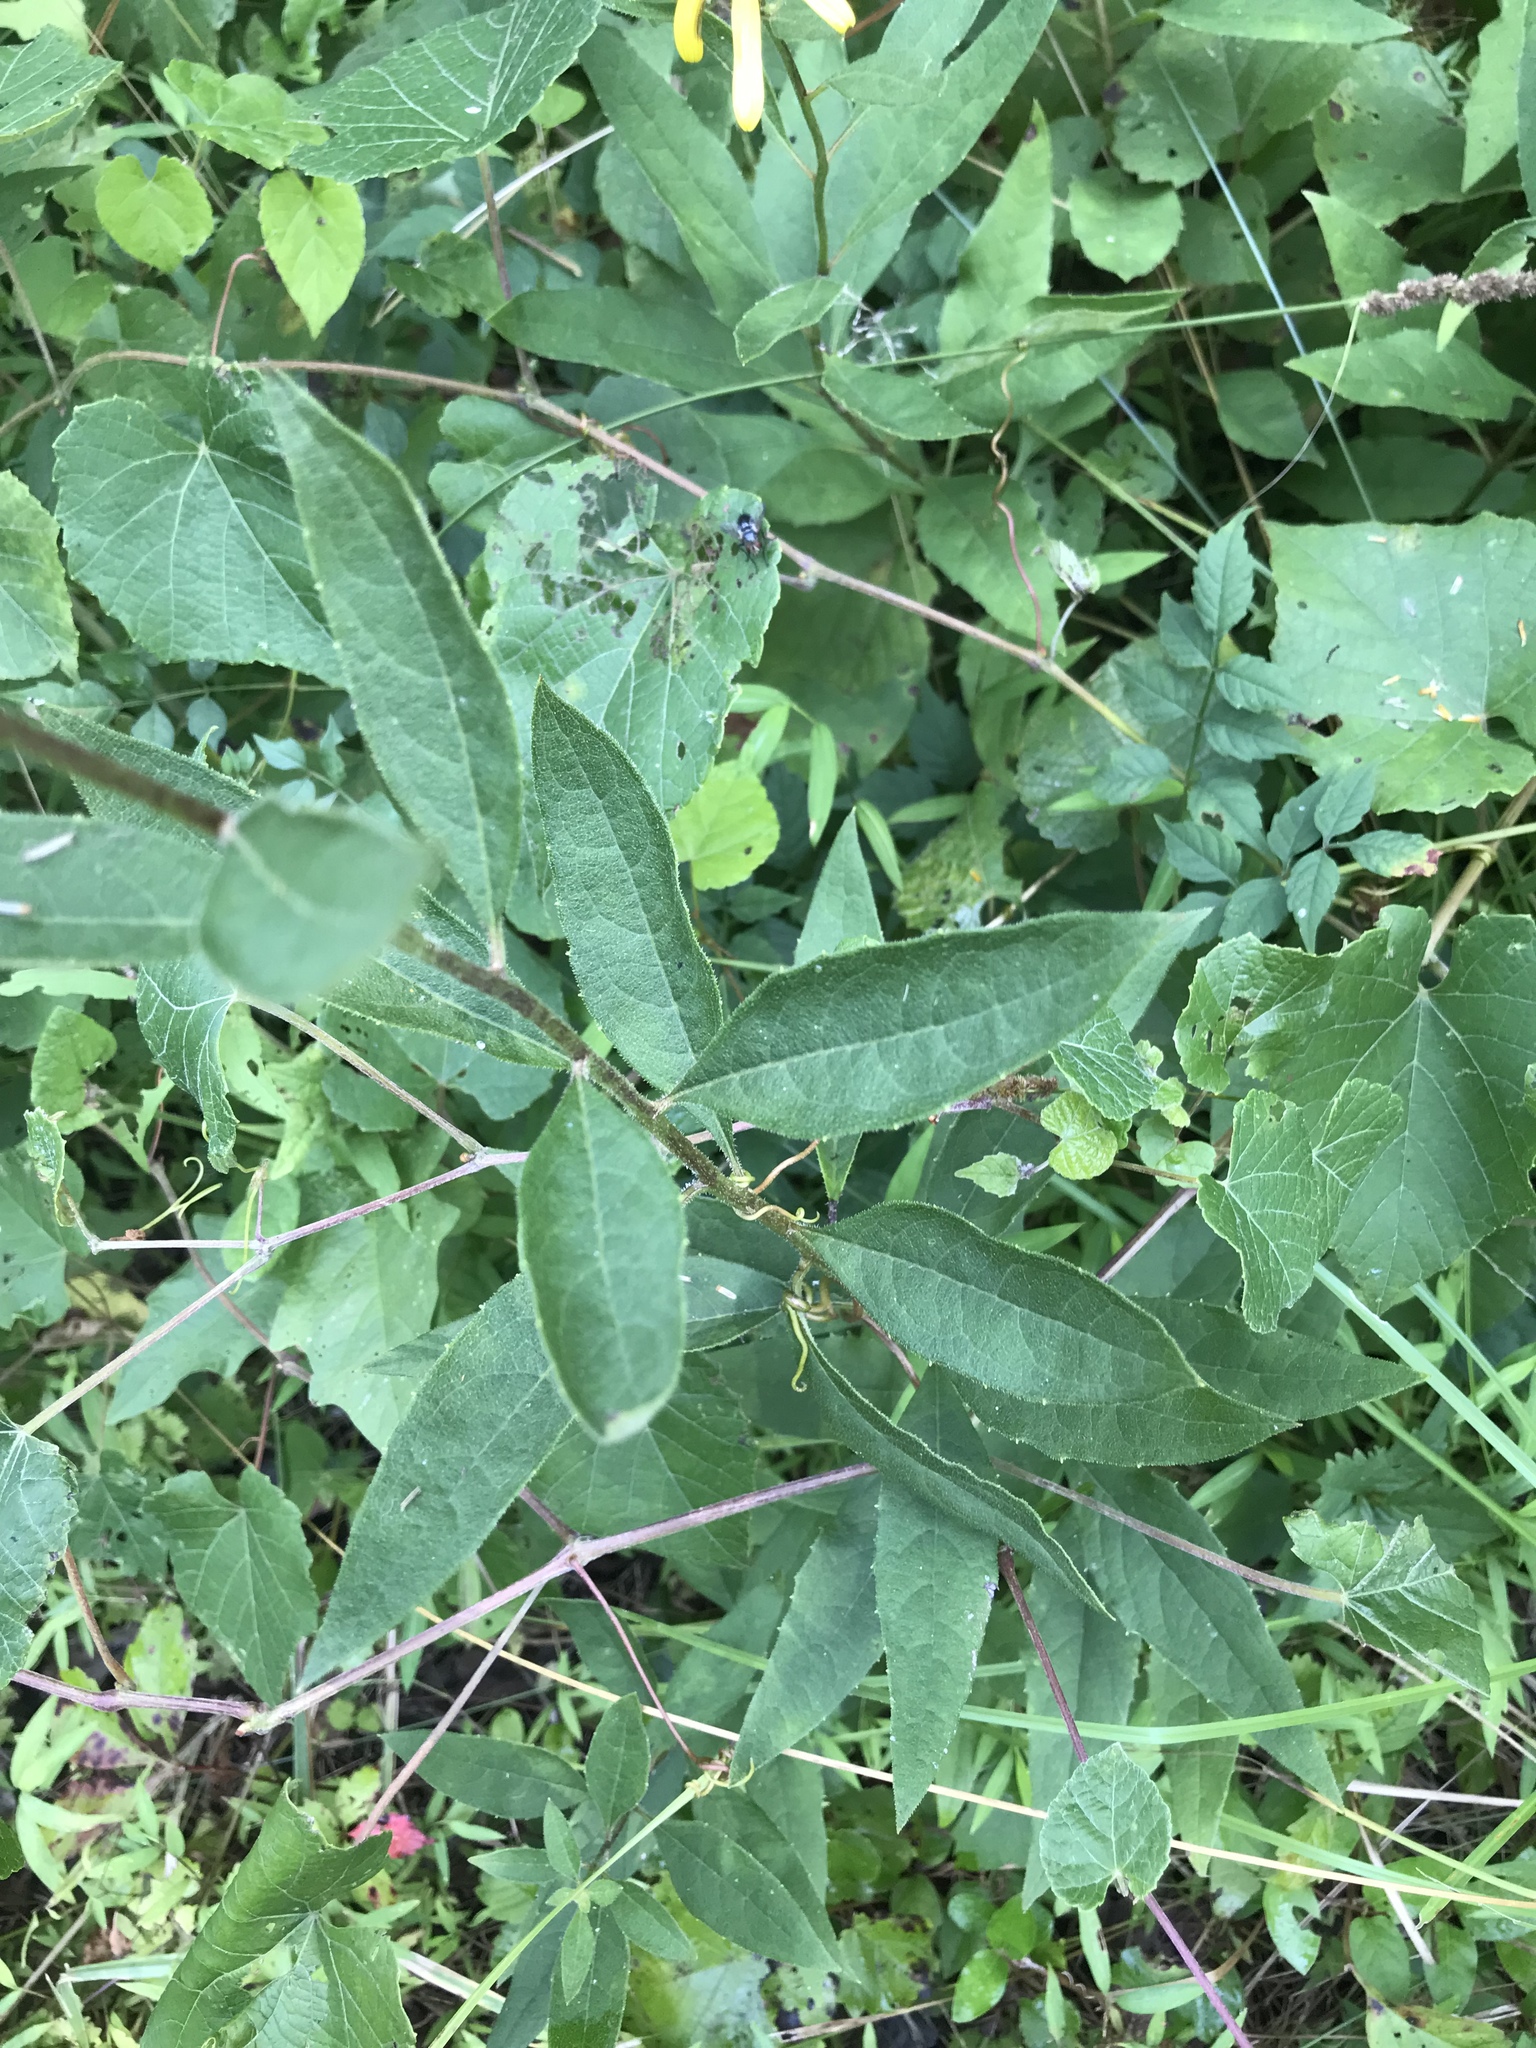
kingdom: Plantae
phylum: Tracheophyta
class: Magnoliopsida
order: Asterales
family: Asteraceae
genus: Silphium
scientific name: Silphium asteriscus
